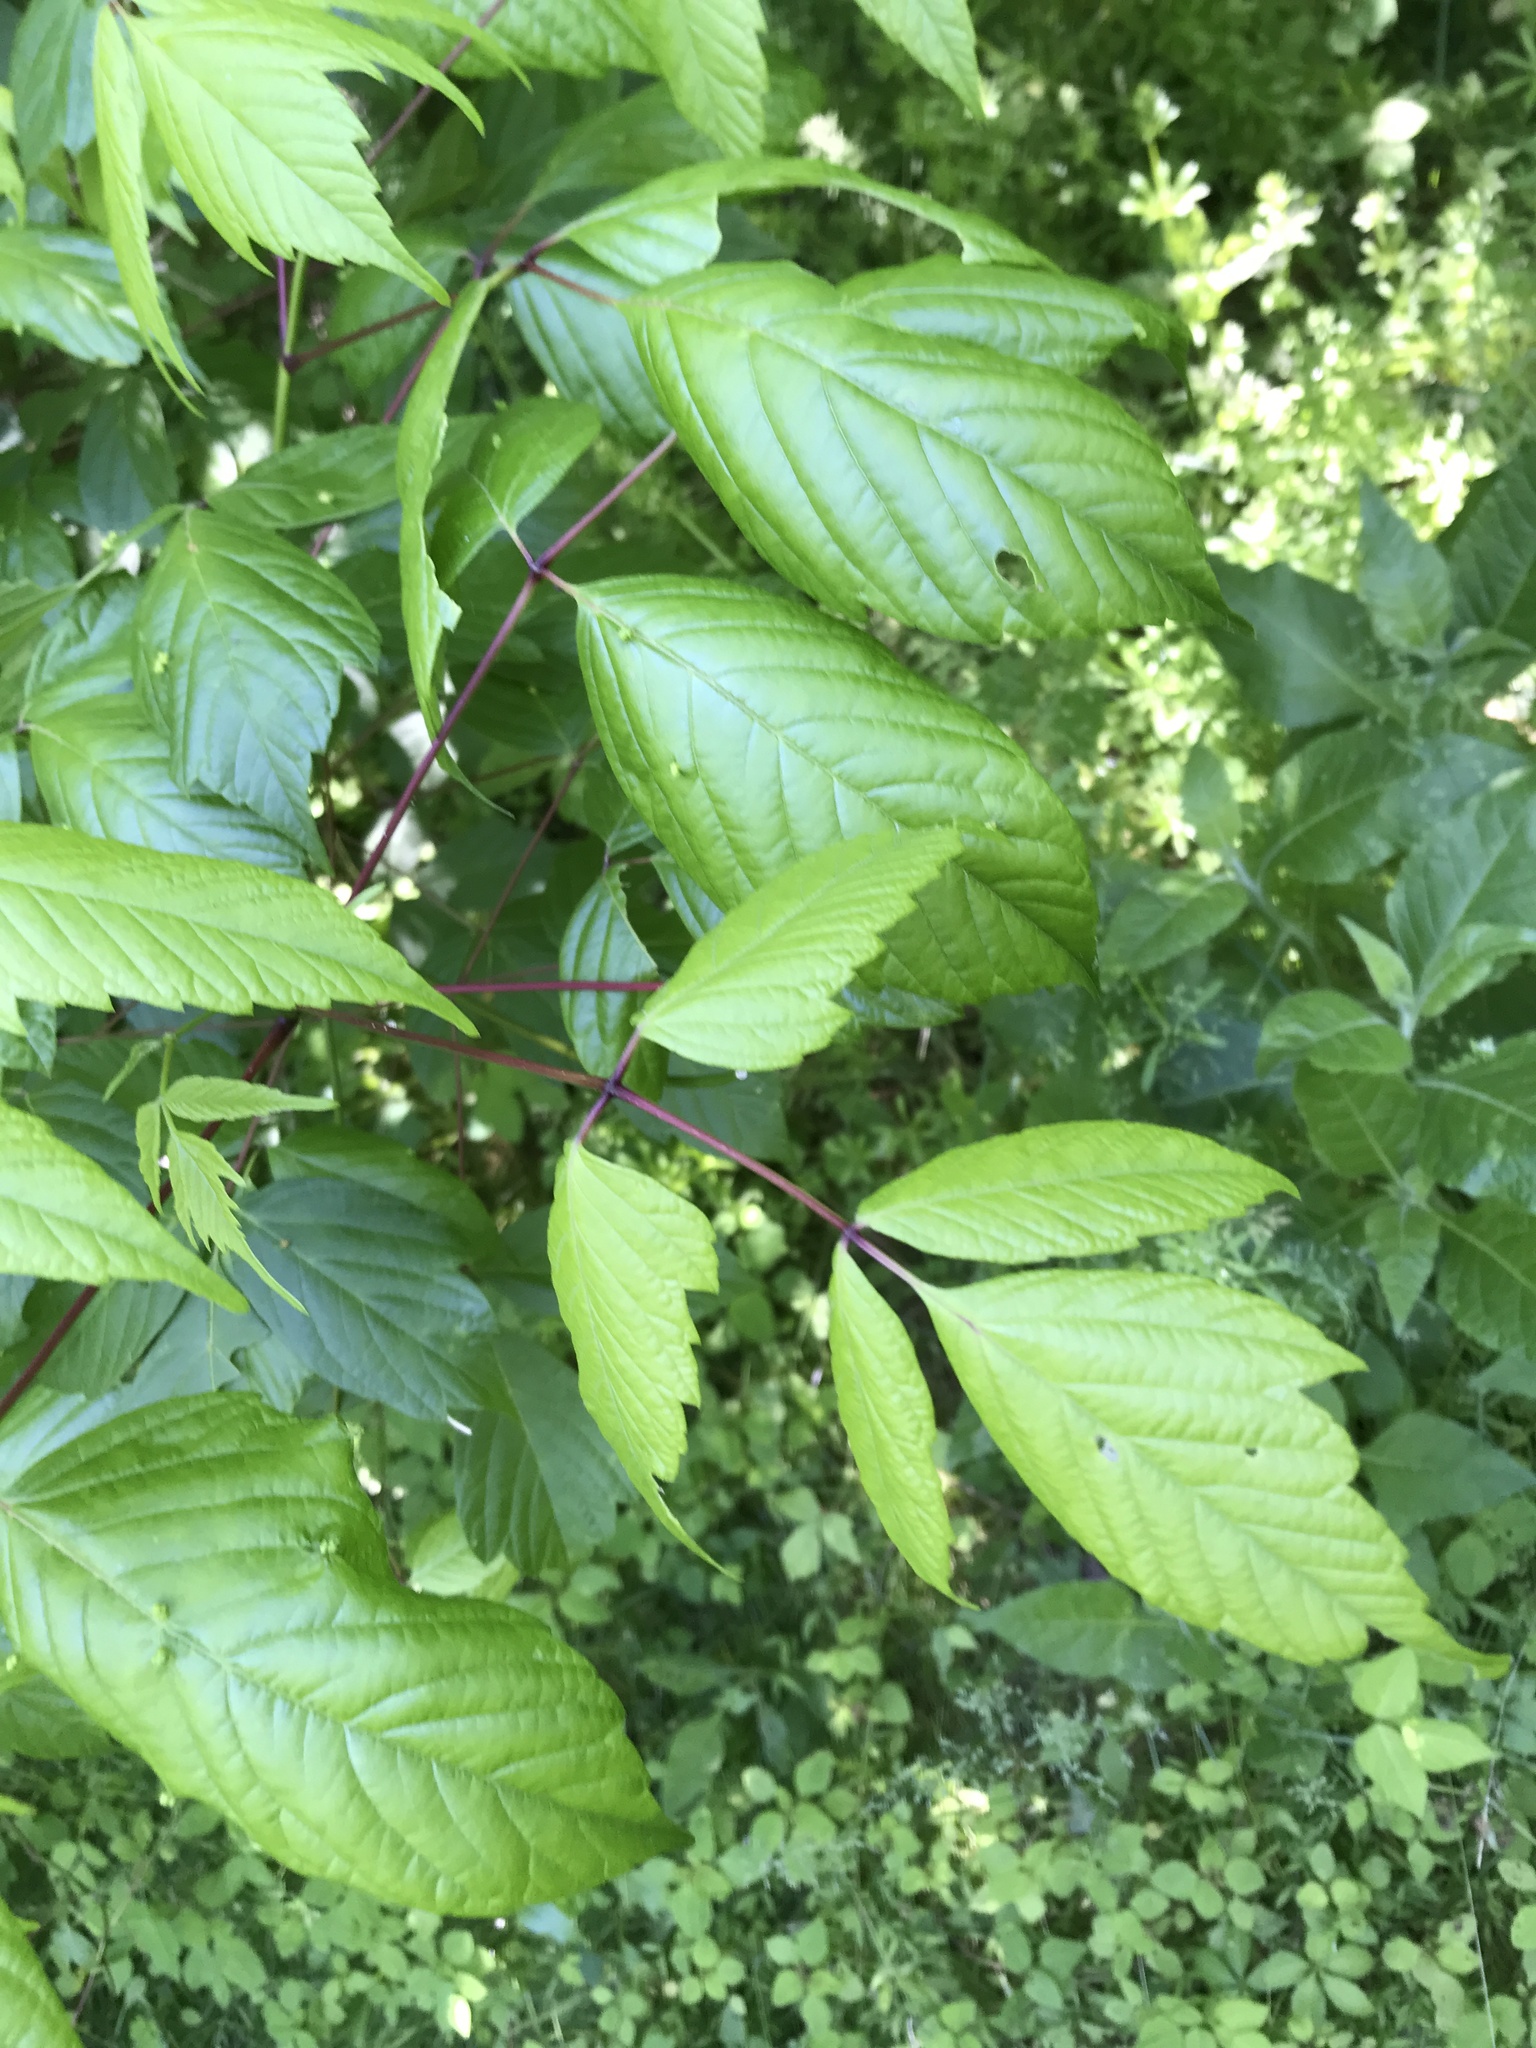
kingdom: Plantae
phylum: Tracheophyta
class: Magnoliopsida
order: Sapindales
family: Sapindaceae
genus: Acer
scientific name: Acer negundo
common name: Ashleaf maple
